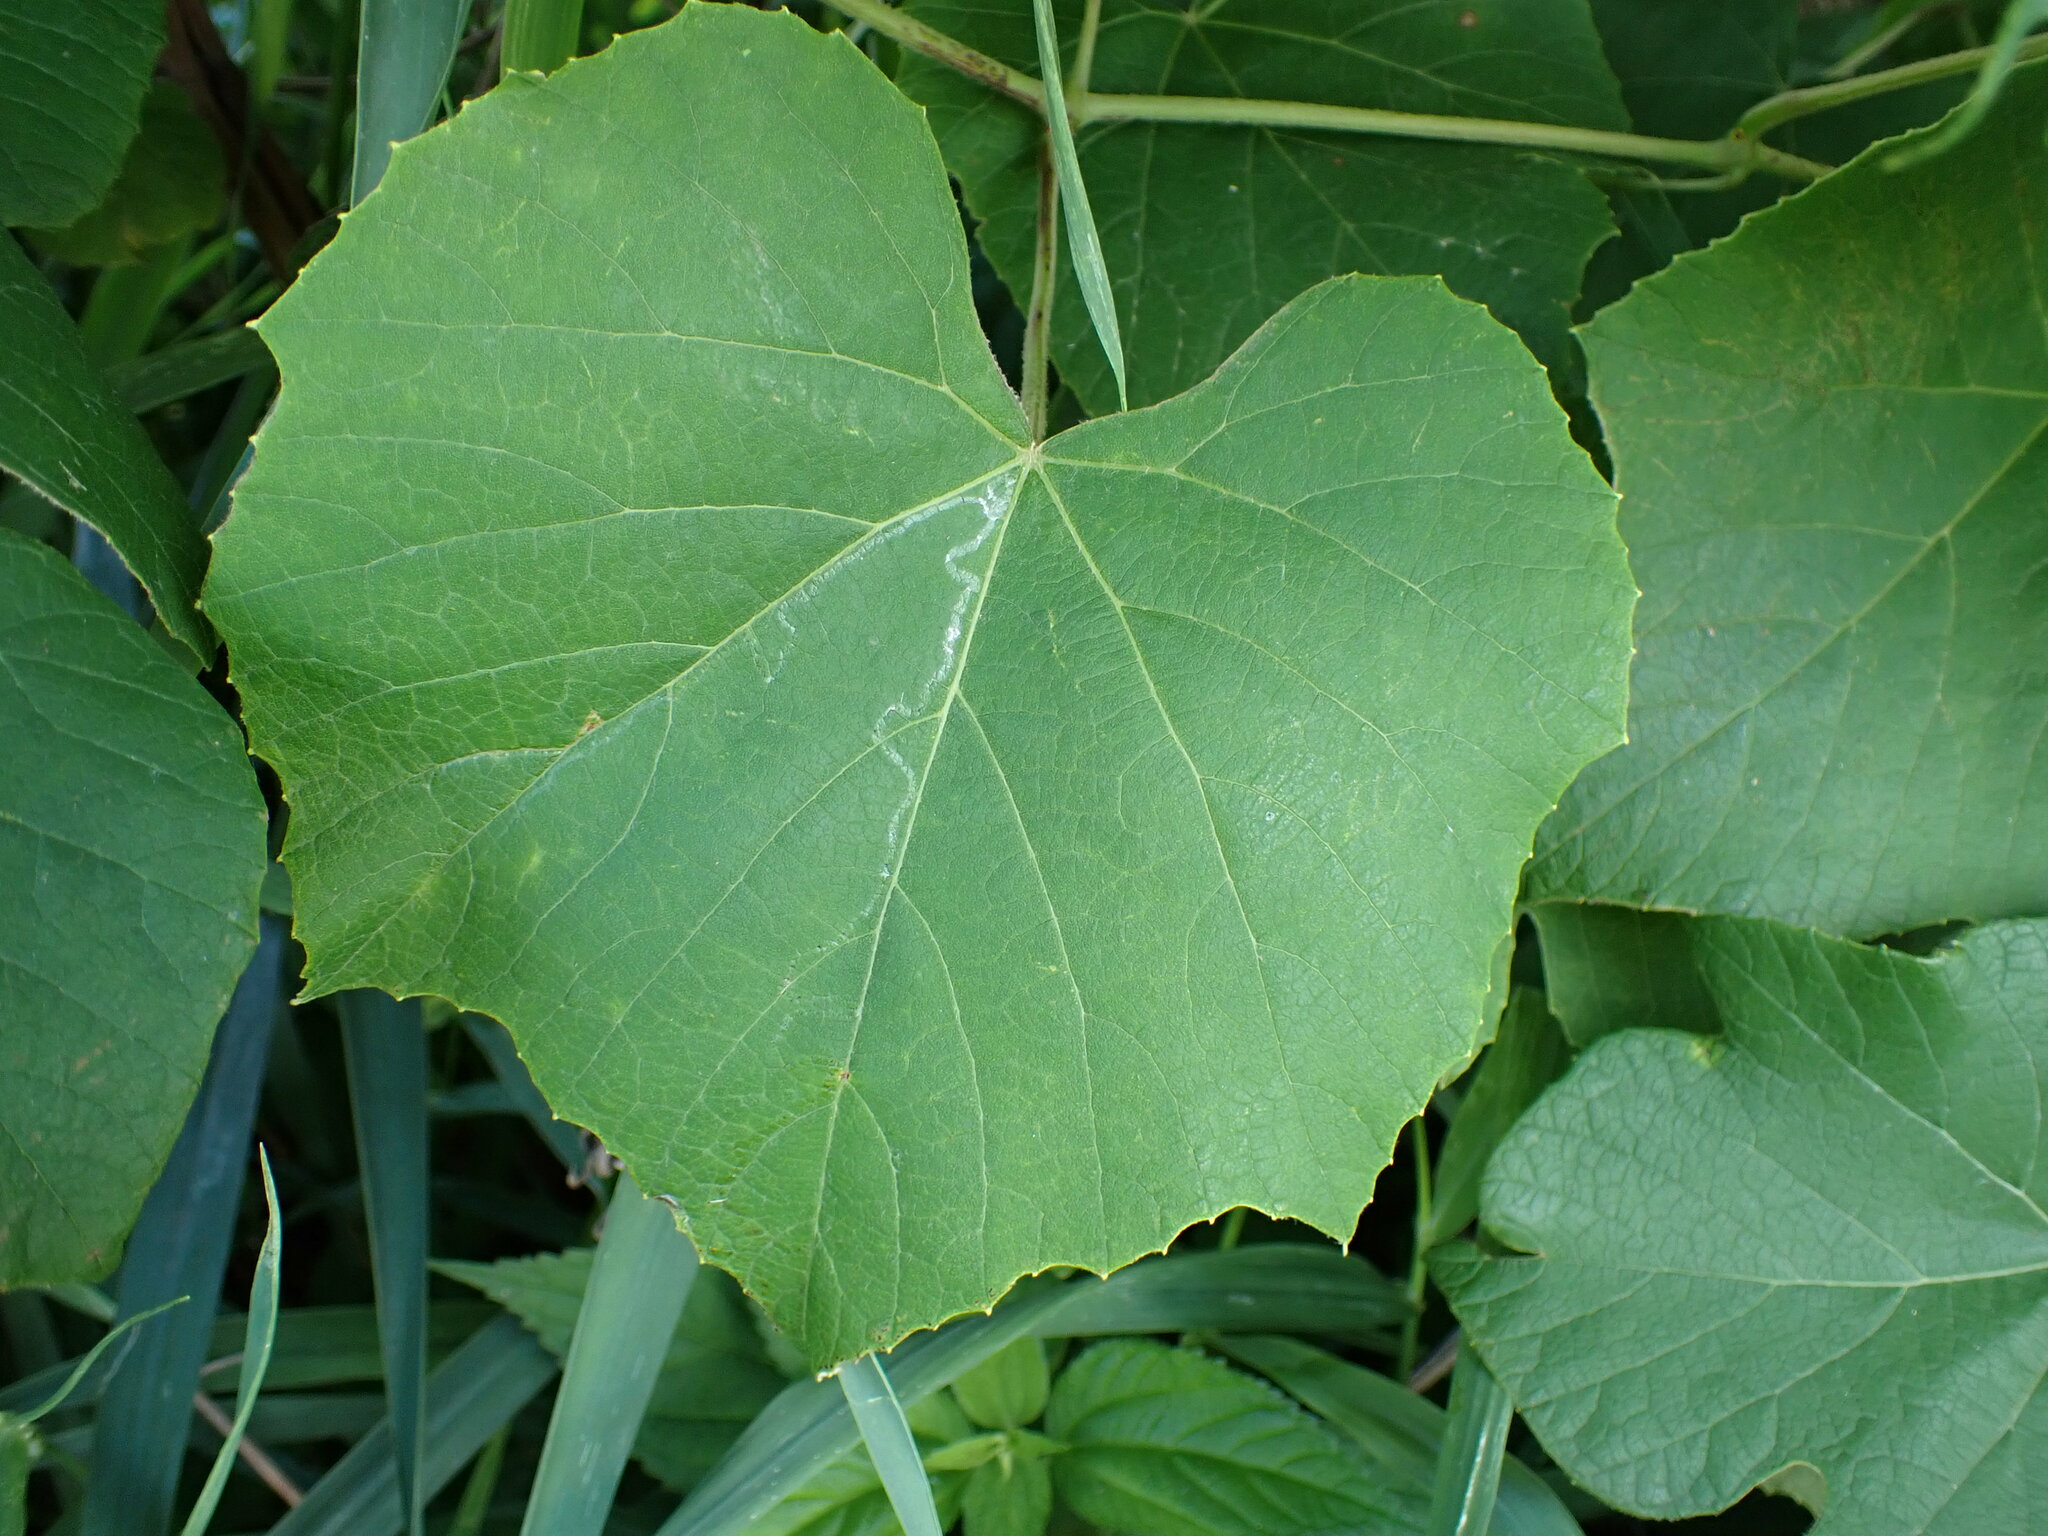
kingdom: Animalia
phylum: Arthropoda
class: Insecta
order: Lepidoptera
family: Gracillariidae
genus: Phyllocnistis
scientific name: Phyllocnistis vitegenella
